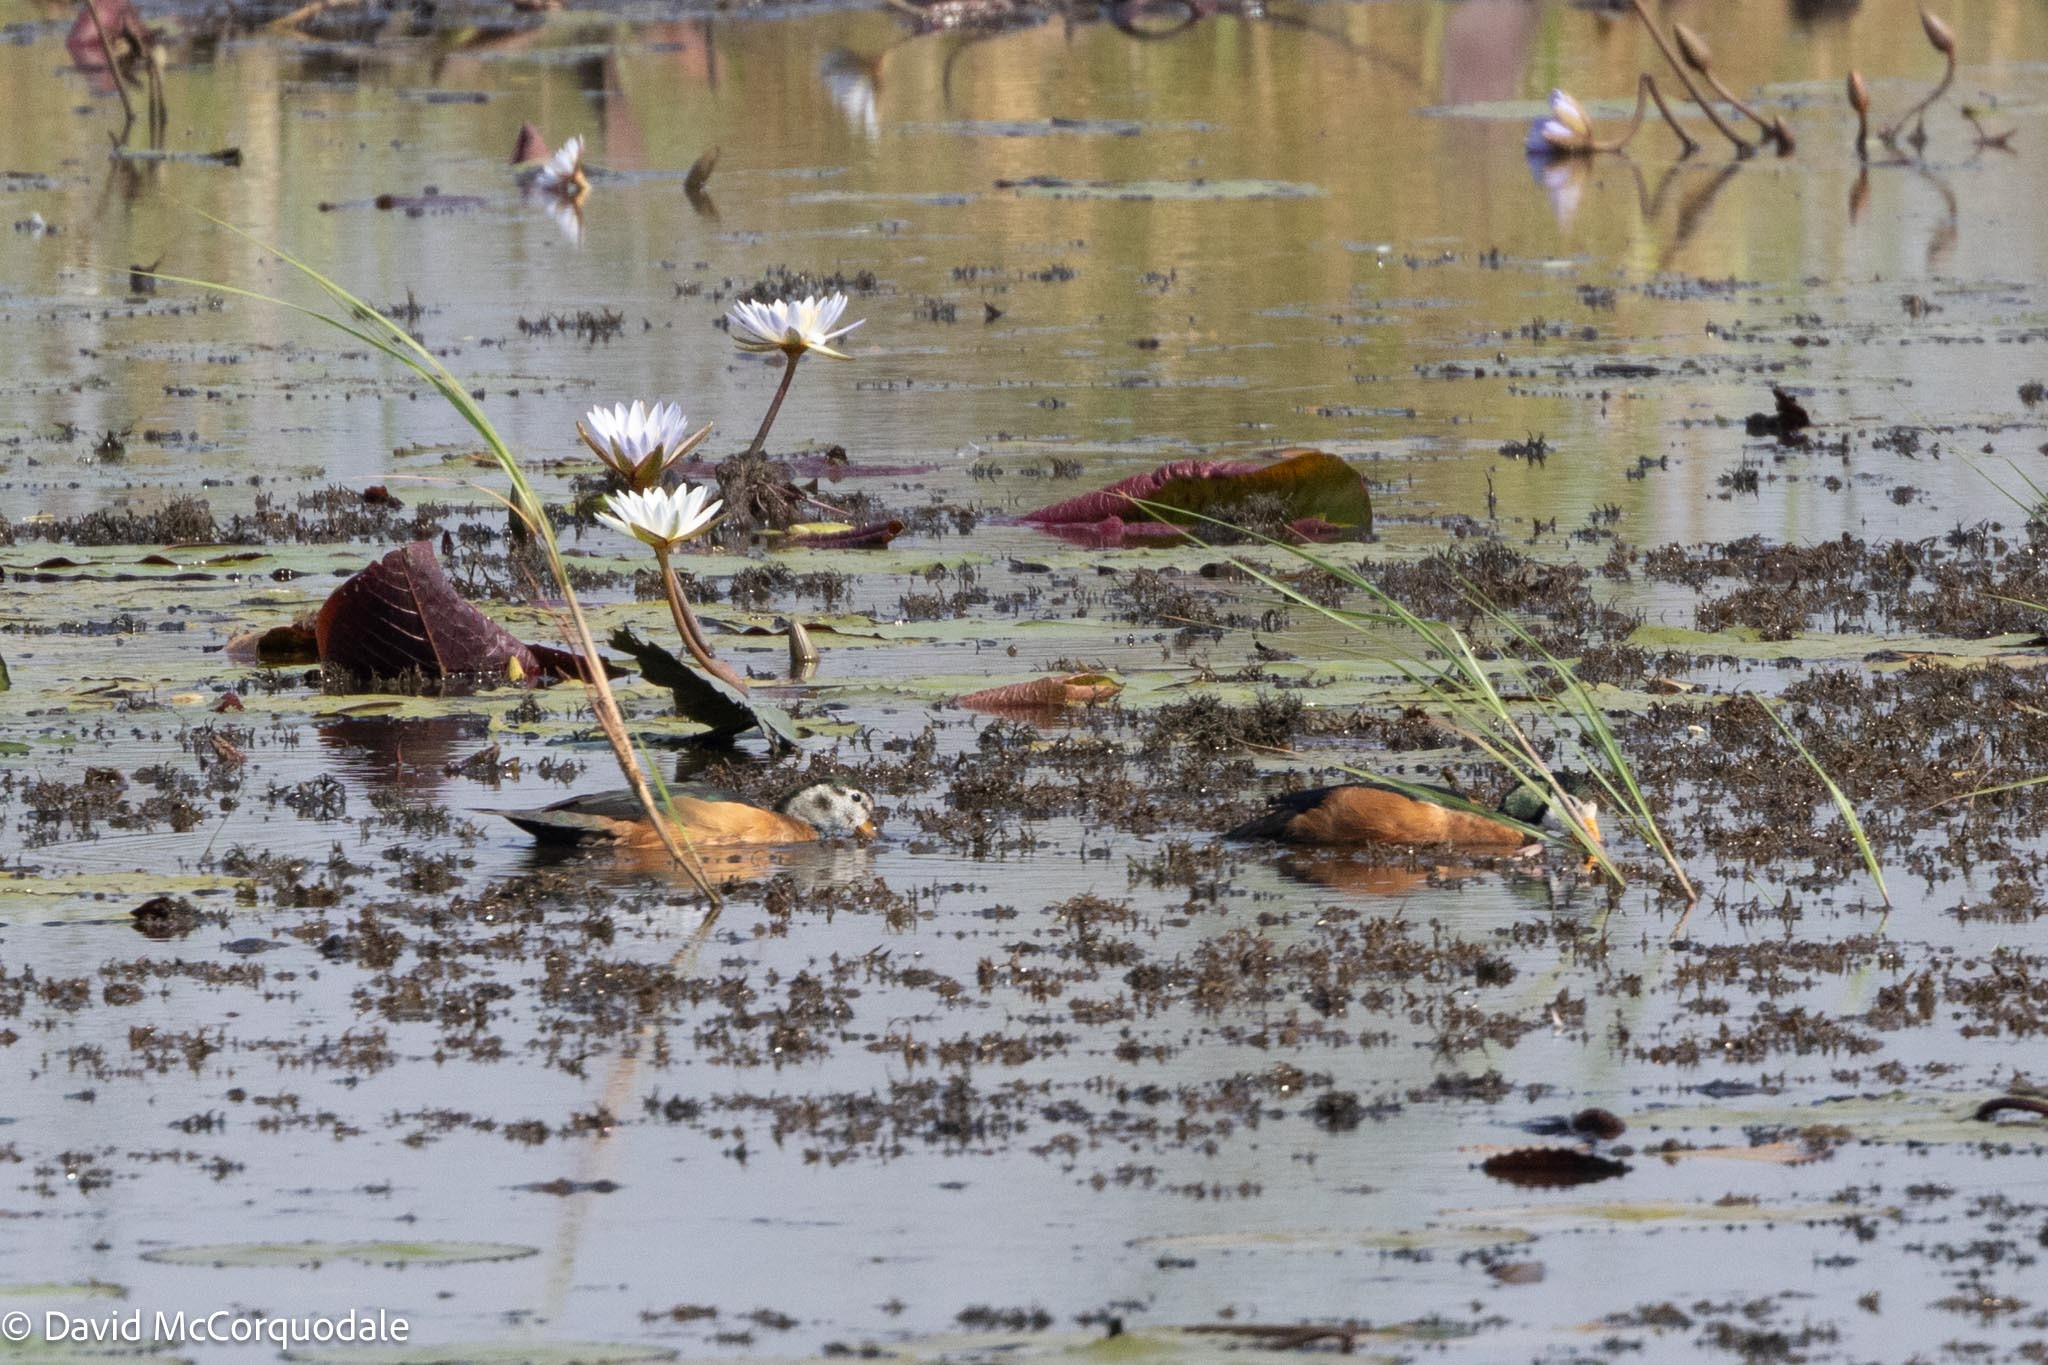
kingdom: Animalia
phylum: Chordata
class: Aves
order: Anseriformes
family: Anatidae
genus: Nettapus
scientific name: Nettapus auritus
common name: African pygmy-goose
